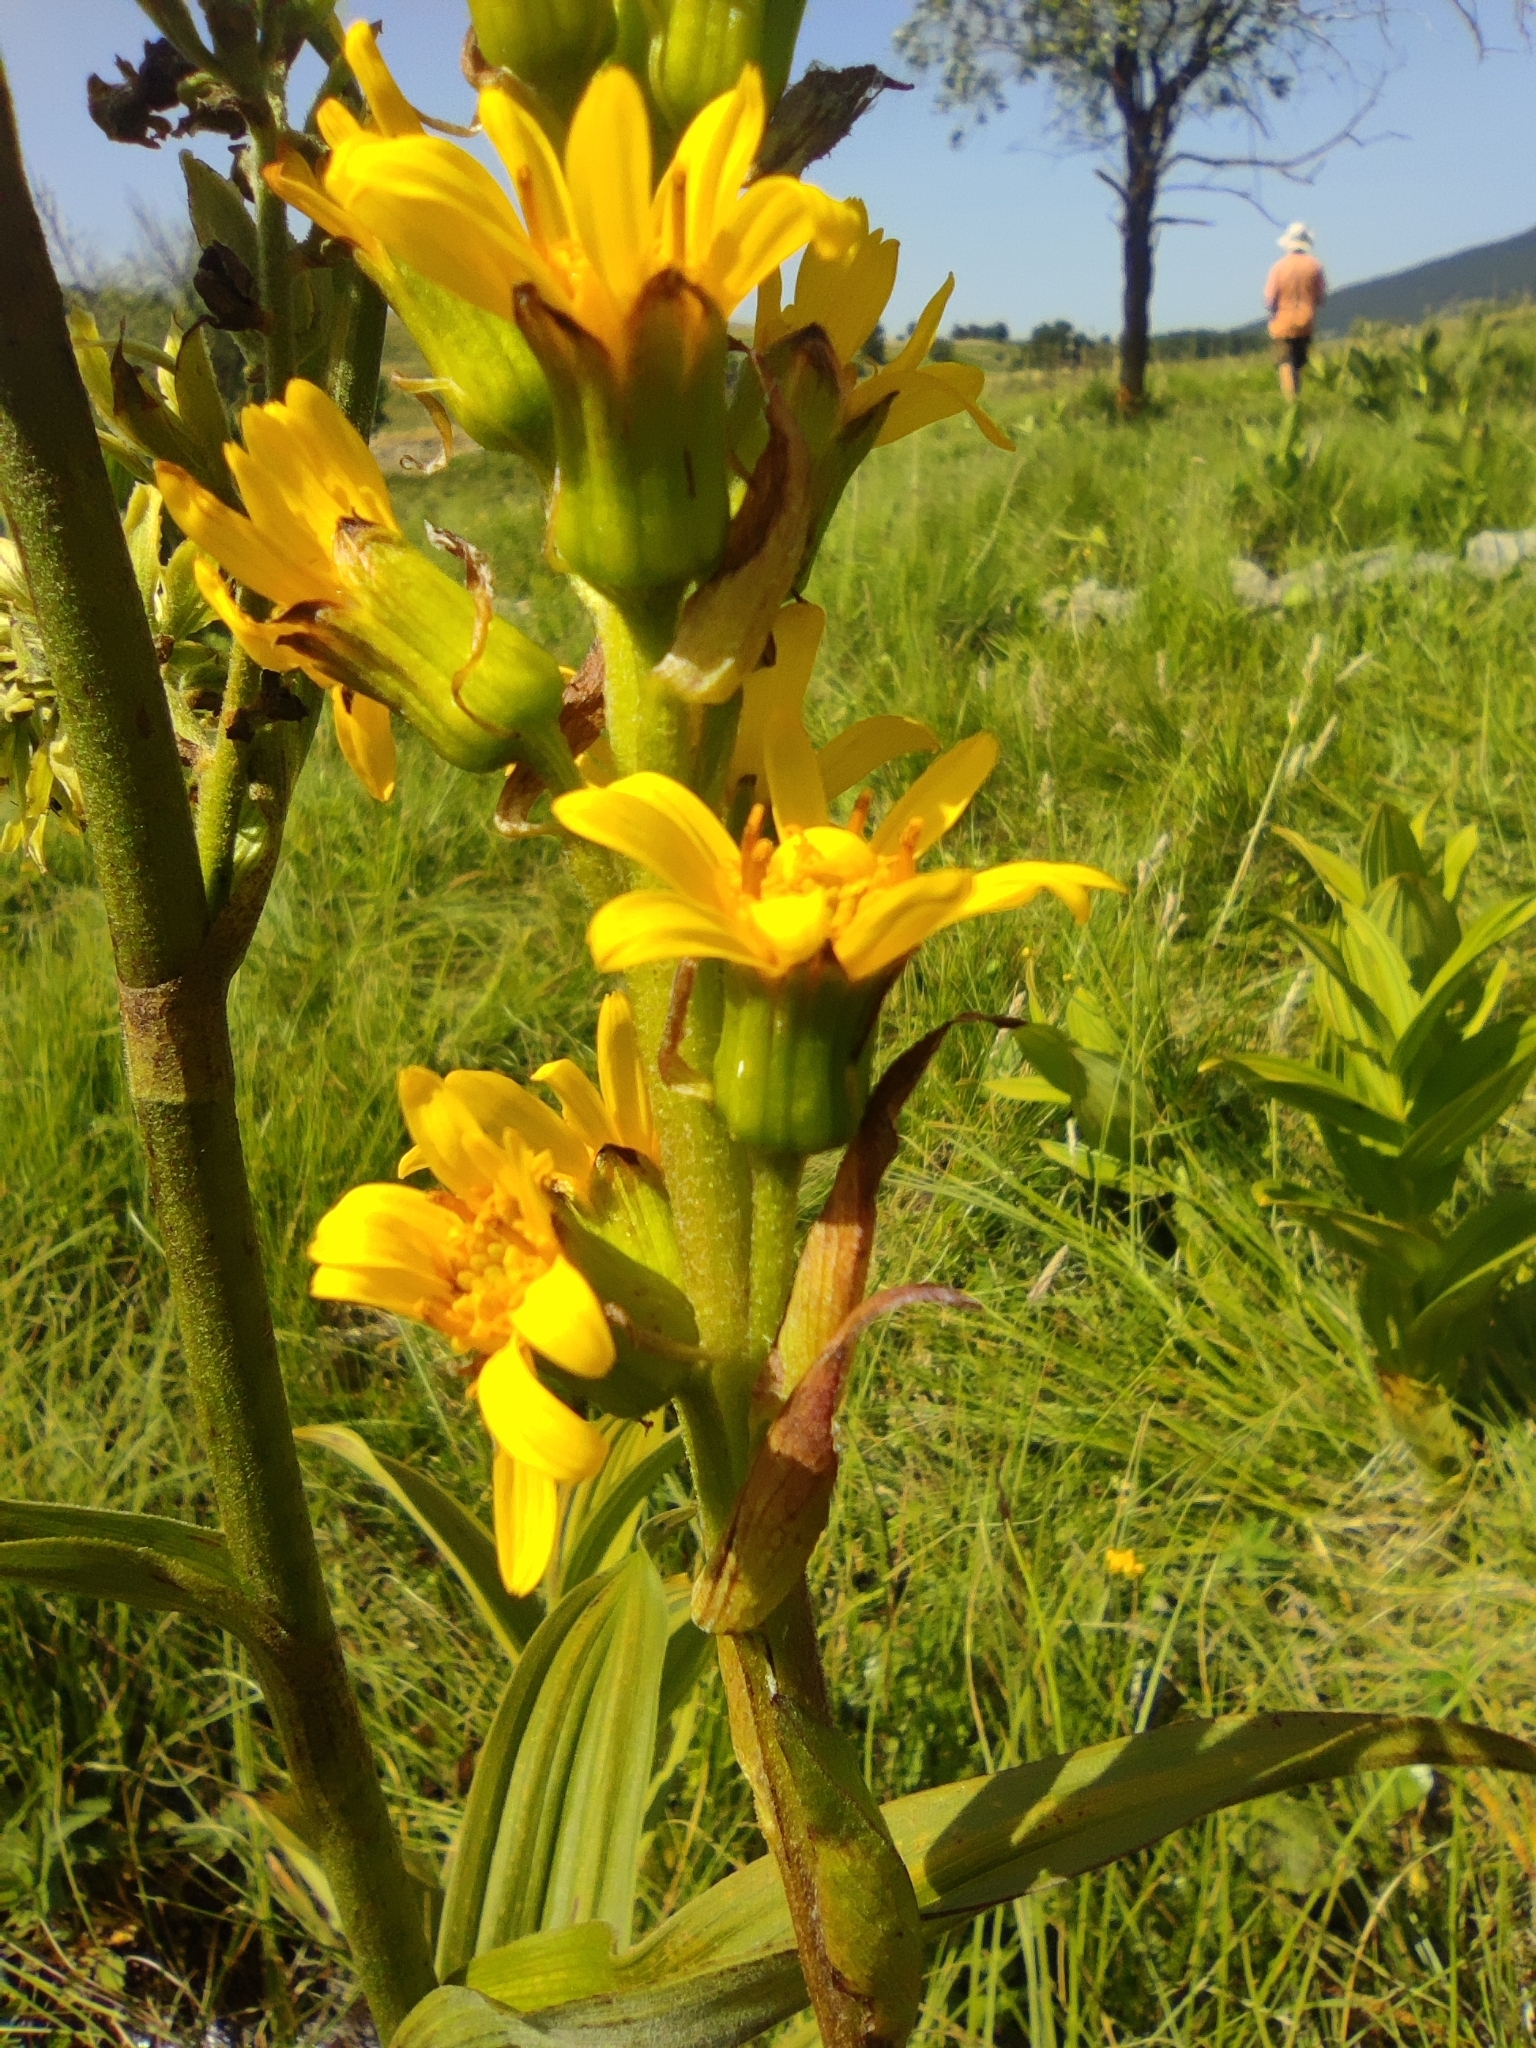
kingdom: Plantae
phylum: Tracheophyta
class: Magnoliopsida
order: Asterales
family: Asteraceae
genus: Ligularia
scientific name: Ligularia sibirica
